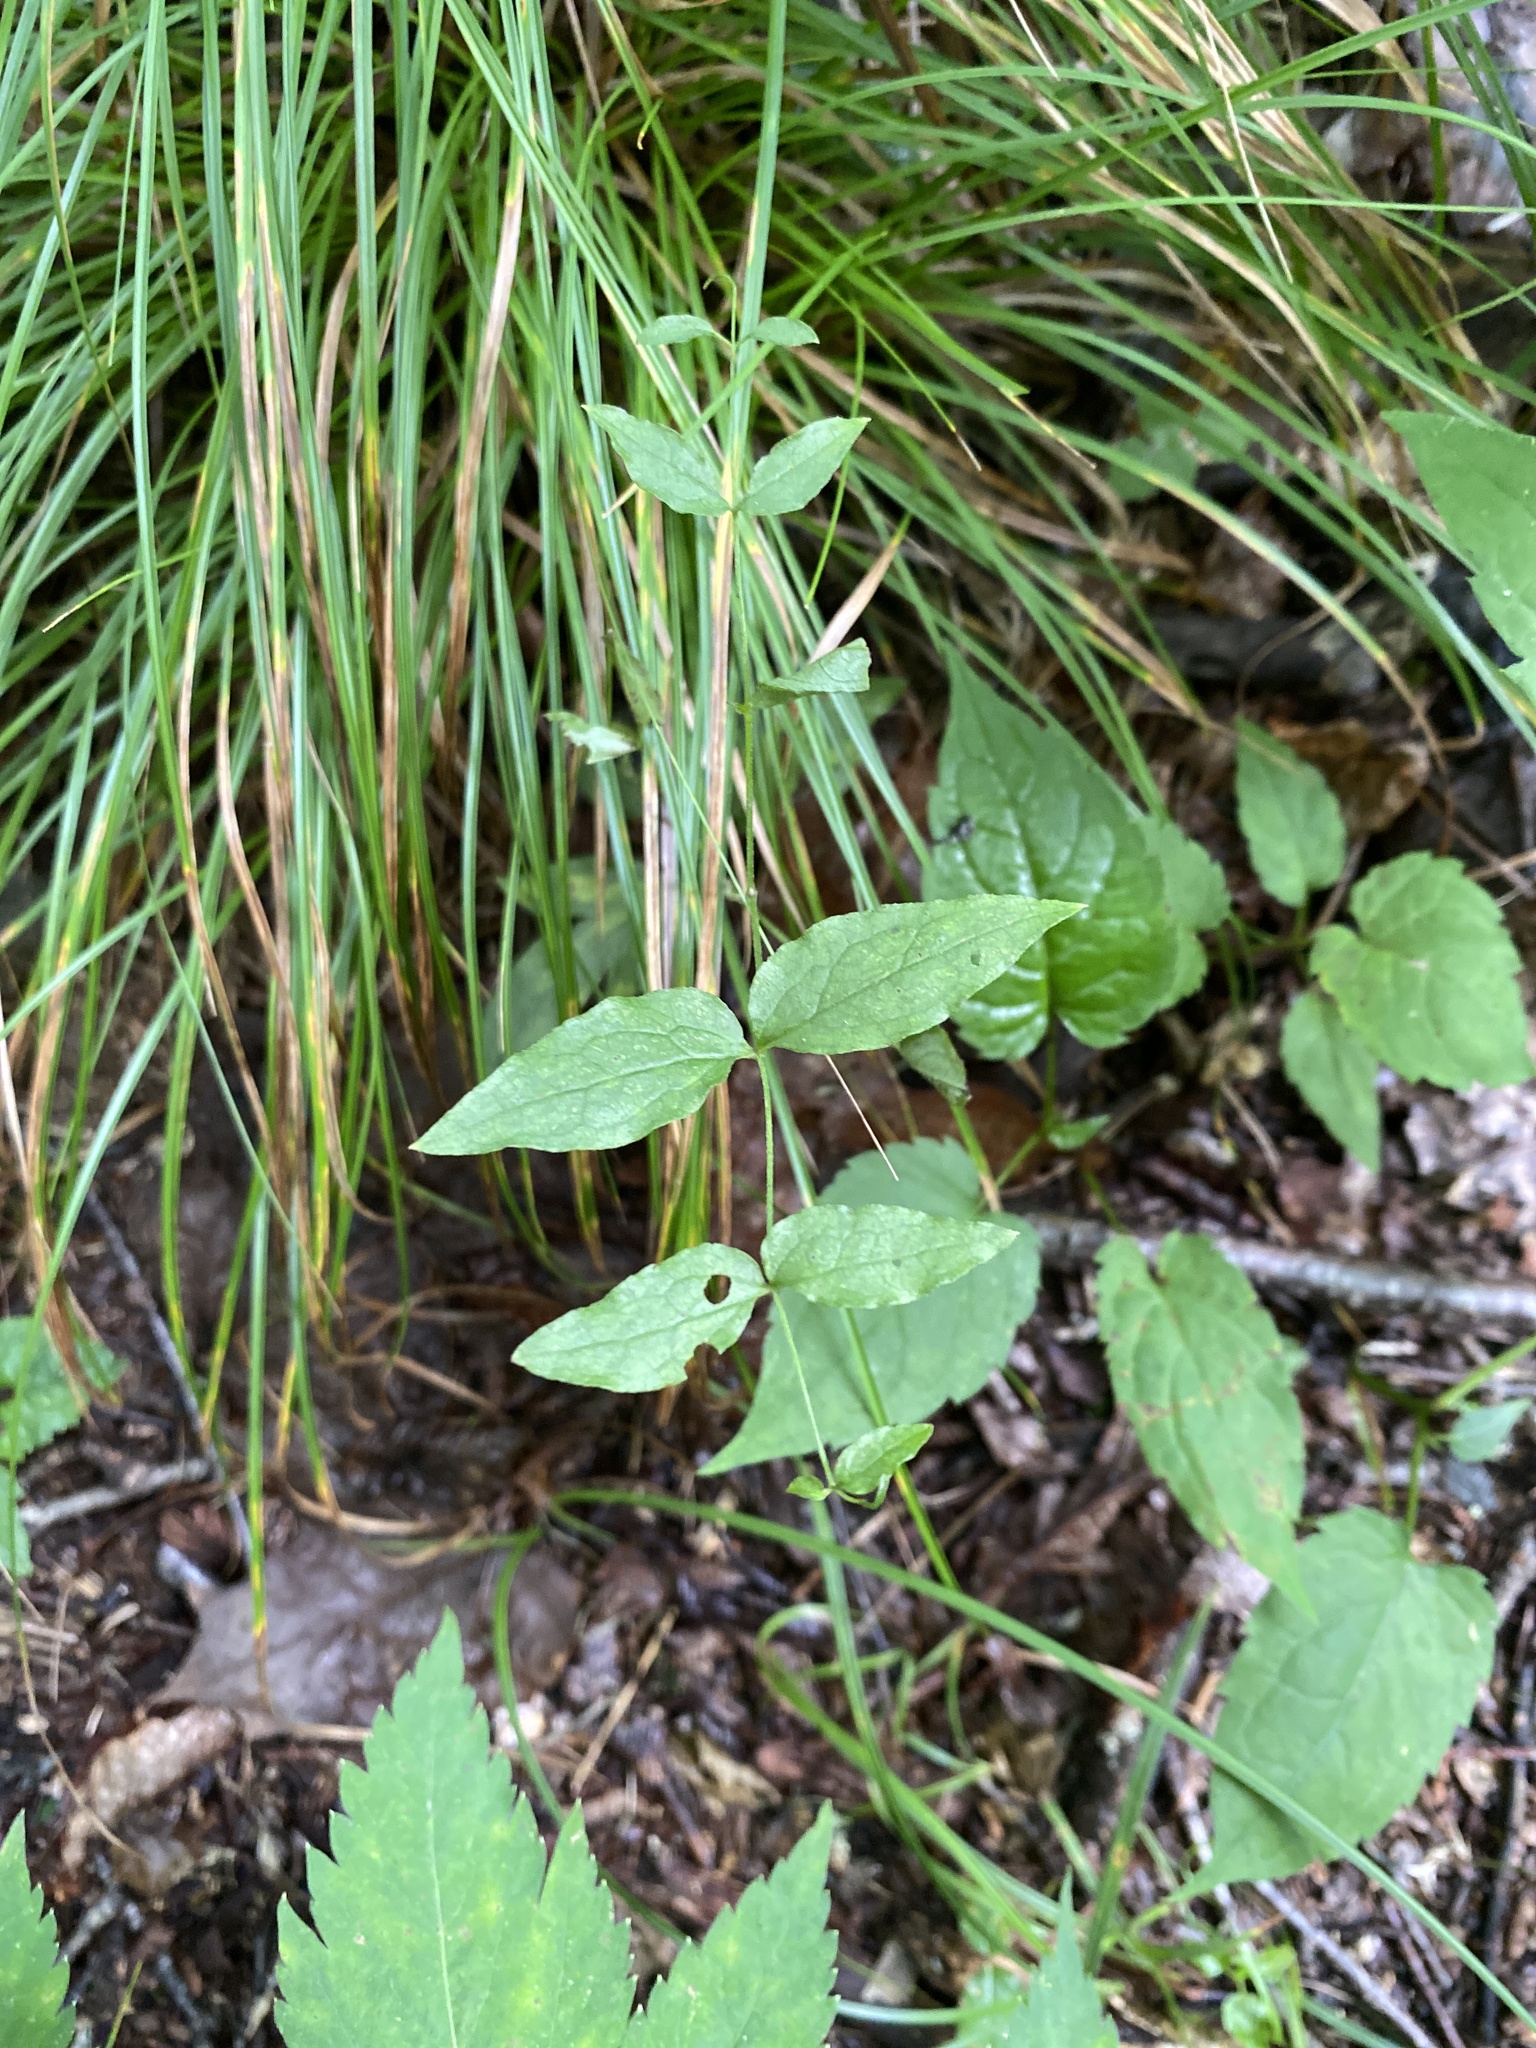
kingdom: Plantae
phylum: Tracheophyta
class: Magnoliopsida
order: Ranunculales
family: Ranunculaceae
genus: Clematis
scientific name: Clematis viorna
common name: Leather-flower
